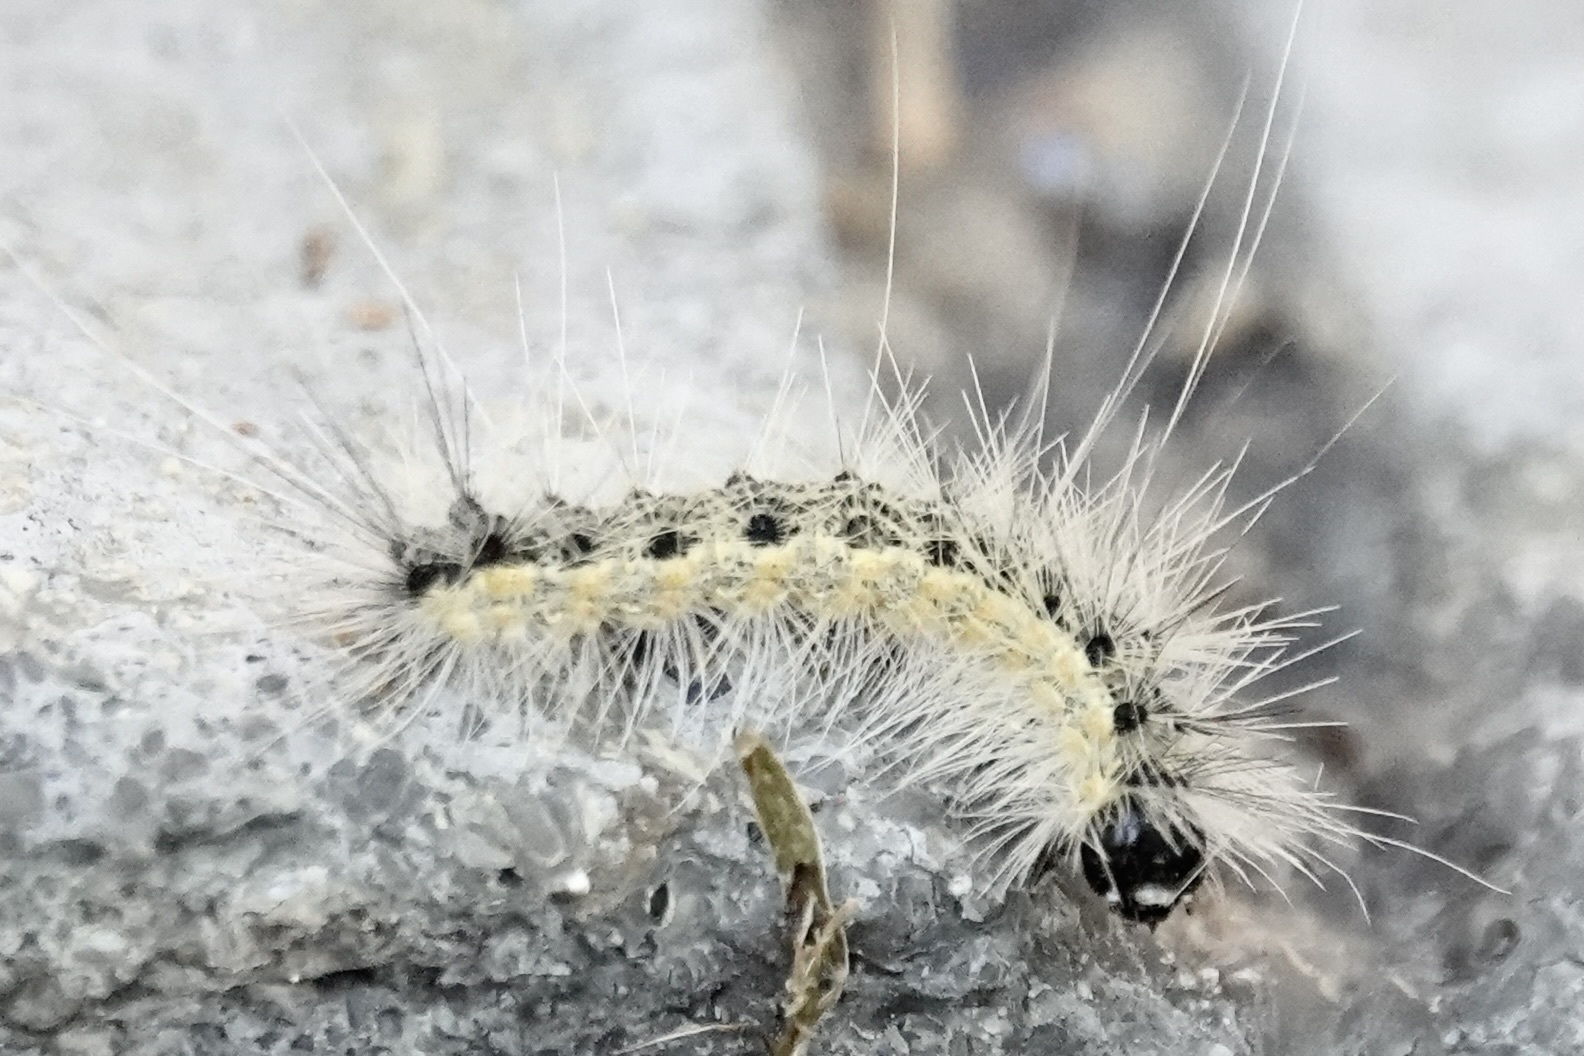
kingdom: Animalia
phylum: Arthropoda
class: Insecta
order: Lepidoptera
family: Erebidae
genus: Hyphantria
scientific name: Hyphantria cunea
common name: American white moth
